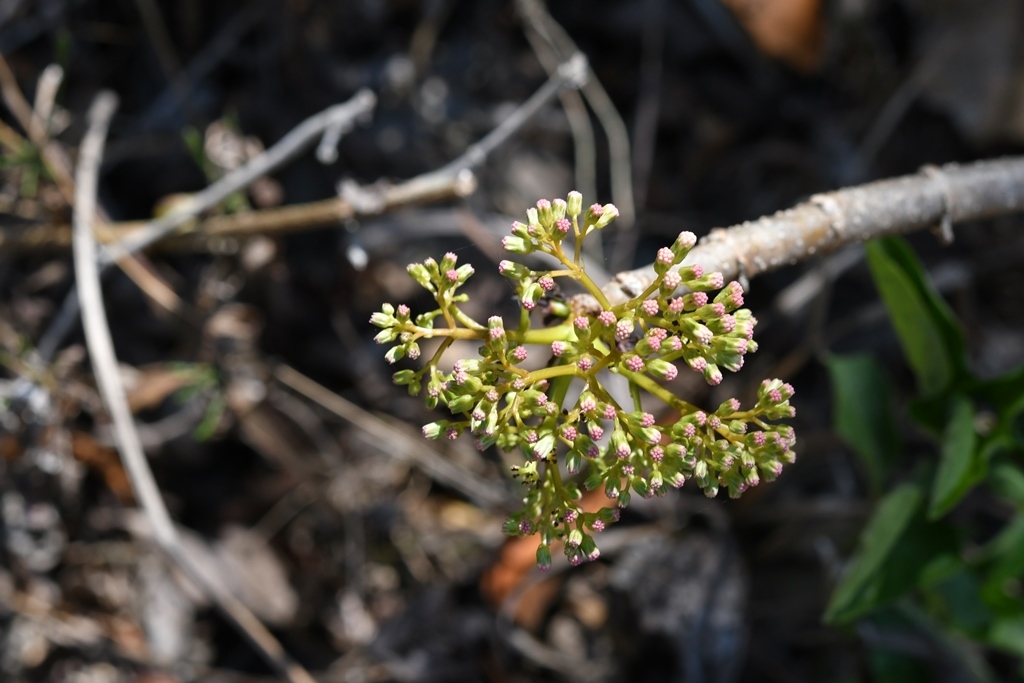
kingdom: Plantae
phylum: Tracheophyta
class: Magnoliopsida
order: Asterales
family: Asteraceae
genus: Ageratina
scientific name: Ageratina crassiramea
